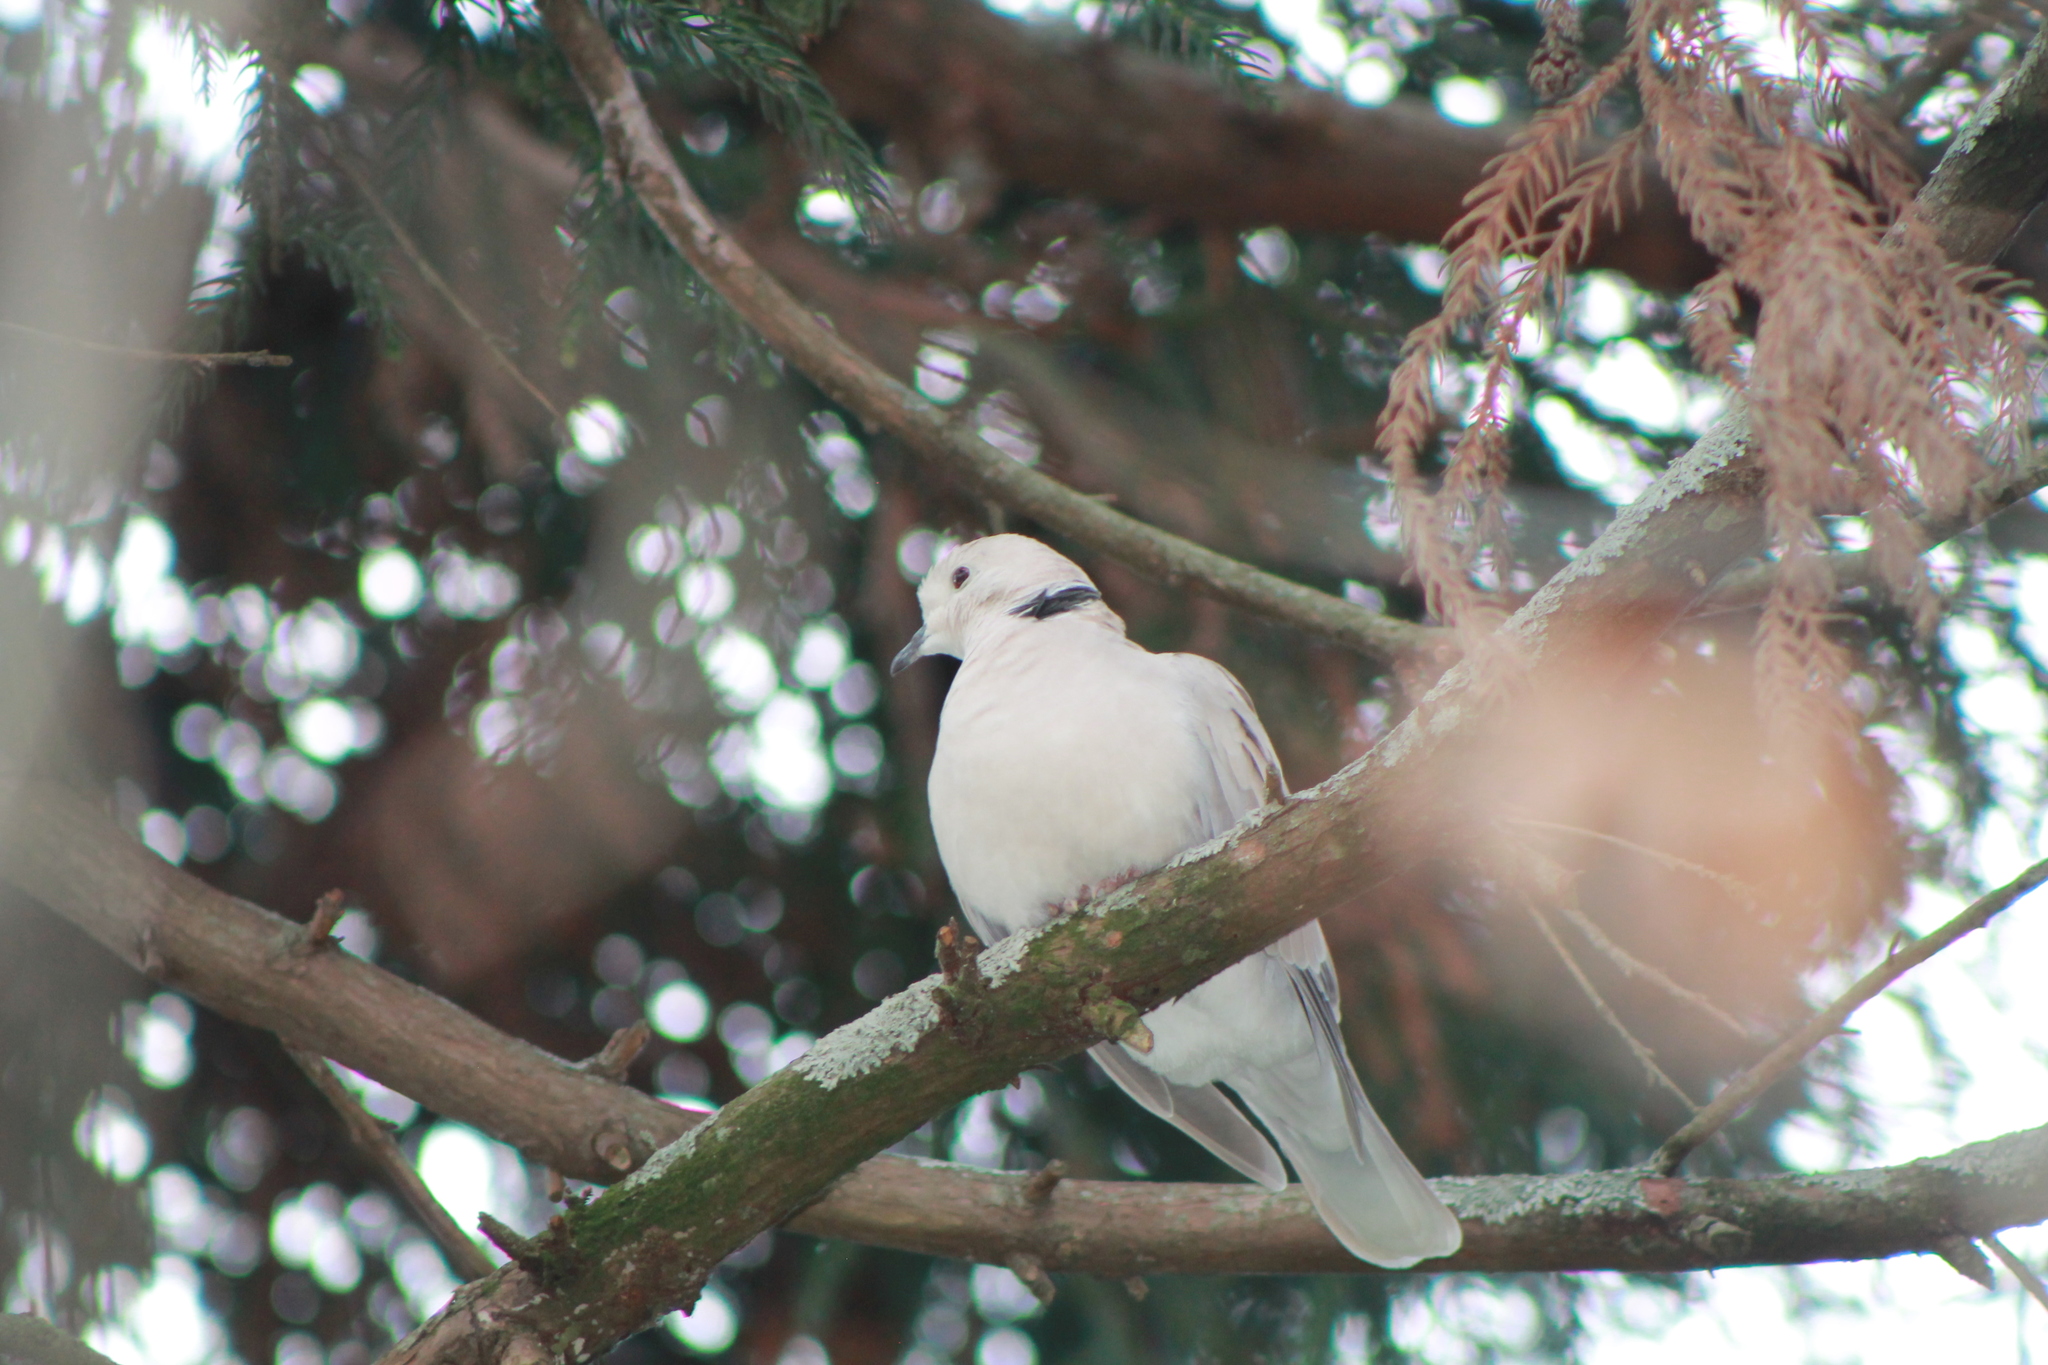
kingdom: Animalia
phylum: Chordata
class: Aves
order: Columbiformes
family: Columbidae
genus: Streptopelia
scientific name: Streptopelia roseogrisea
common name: African collared dove
